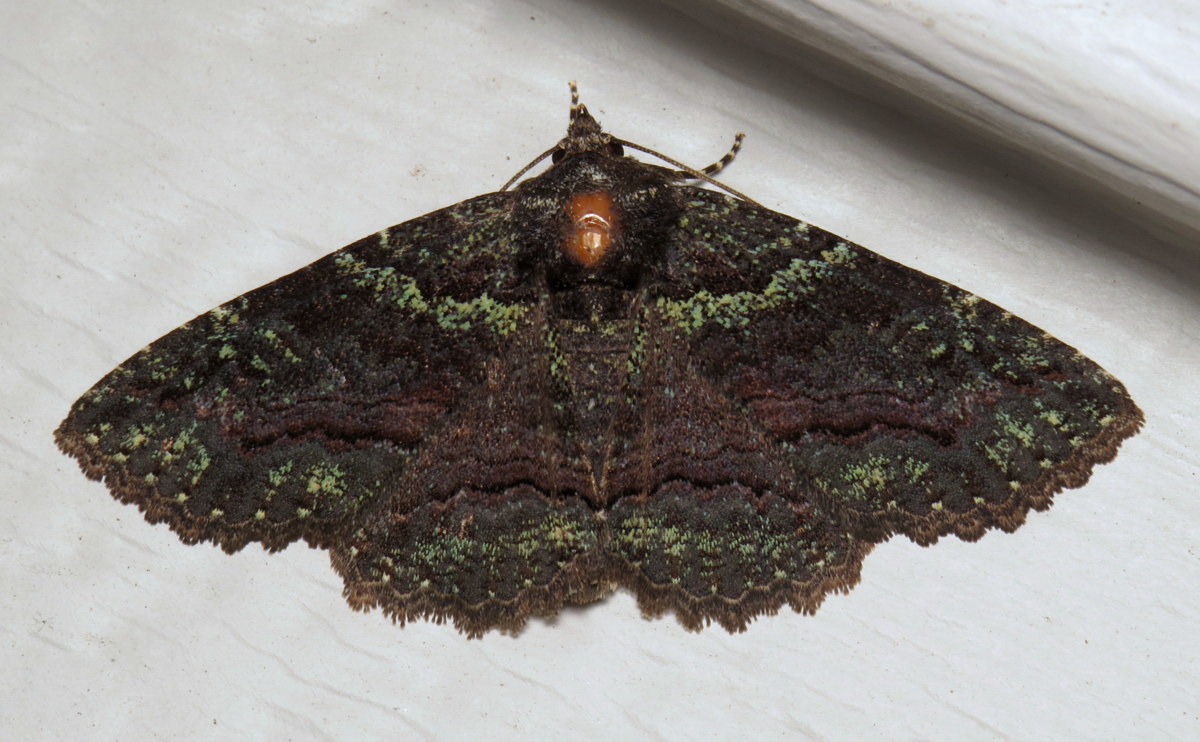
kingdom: Animalia
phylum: Arthropoda
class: Insecta
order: Lepidoptera
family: Erebidae
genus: Zale
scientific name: Zale aeruginosa
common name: Green-dusted zale moth
